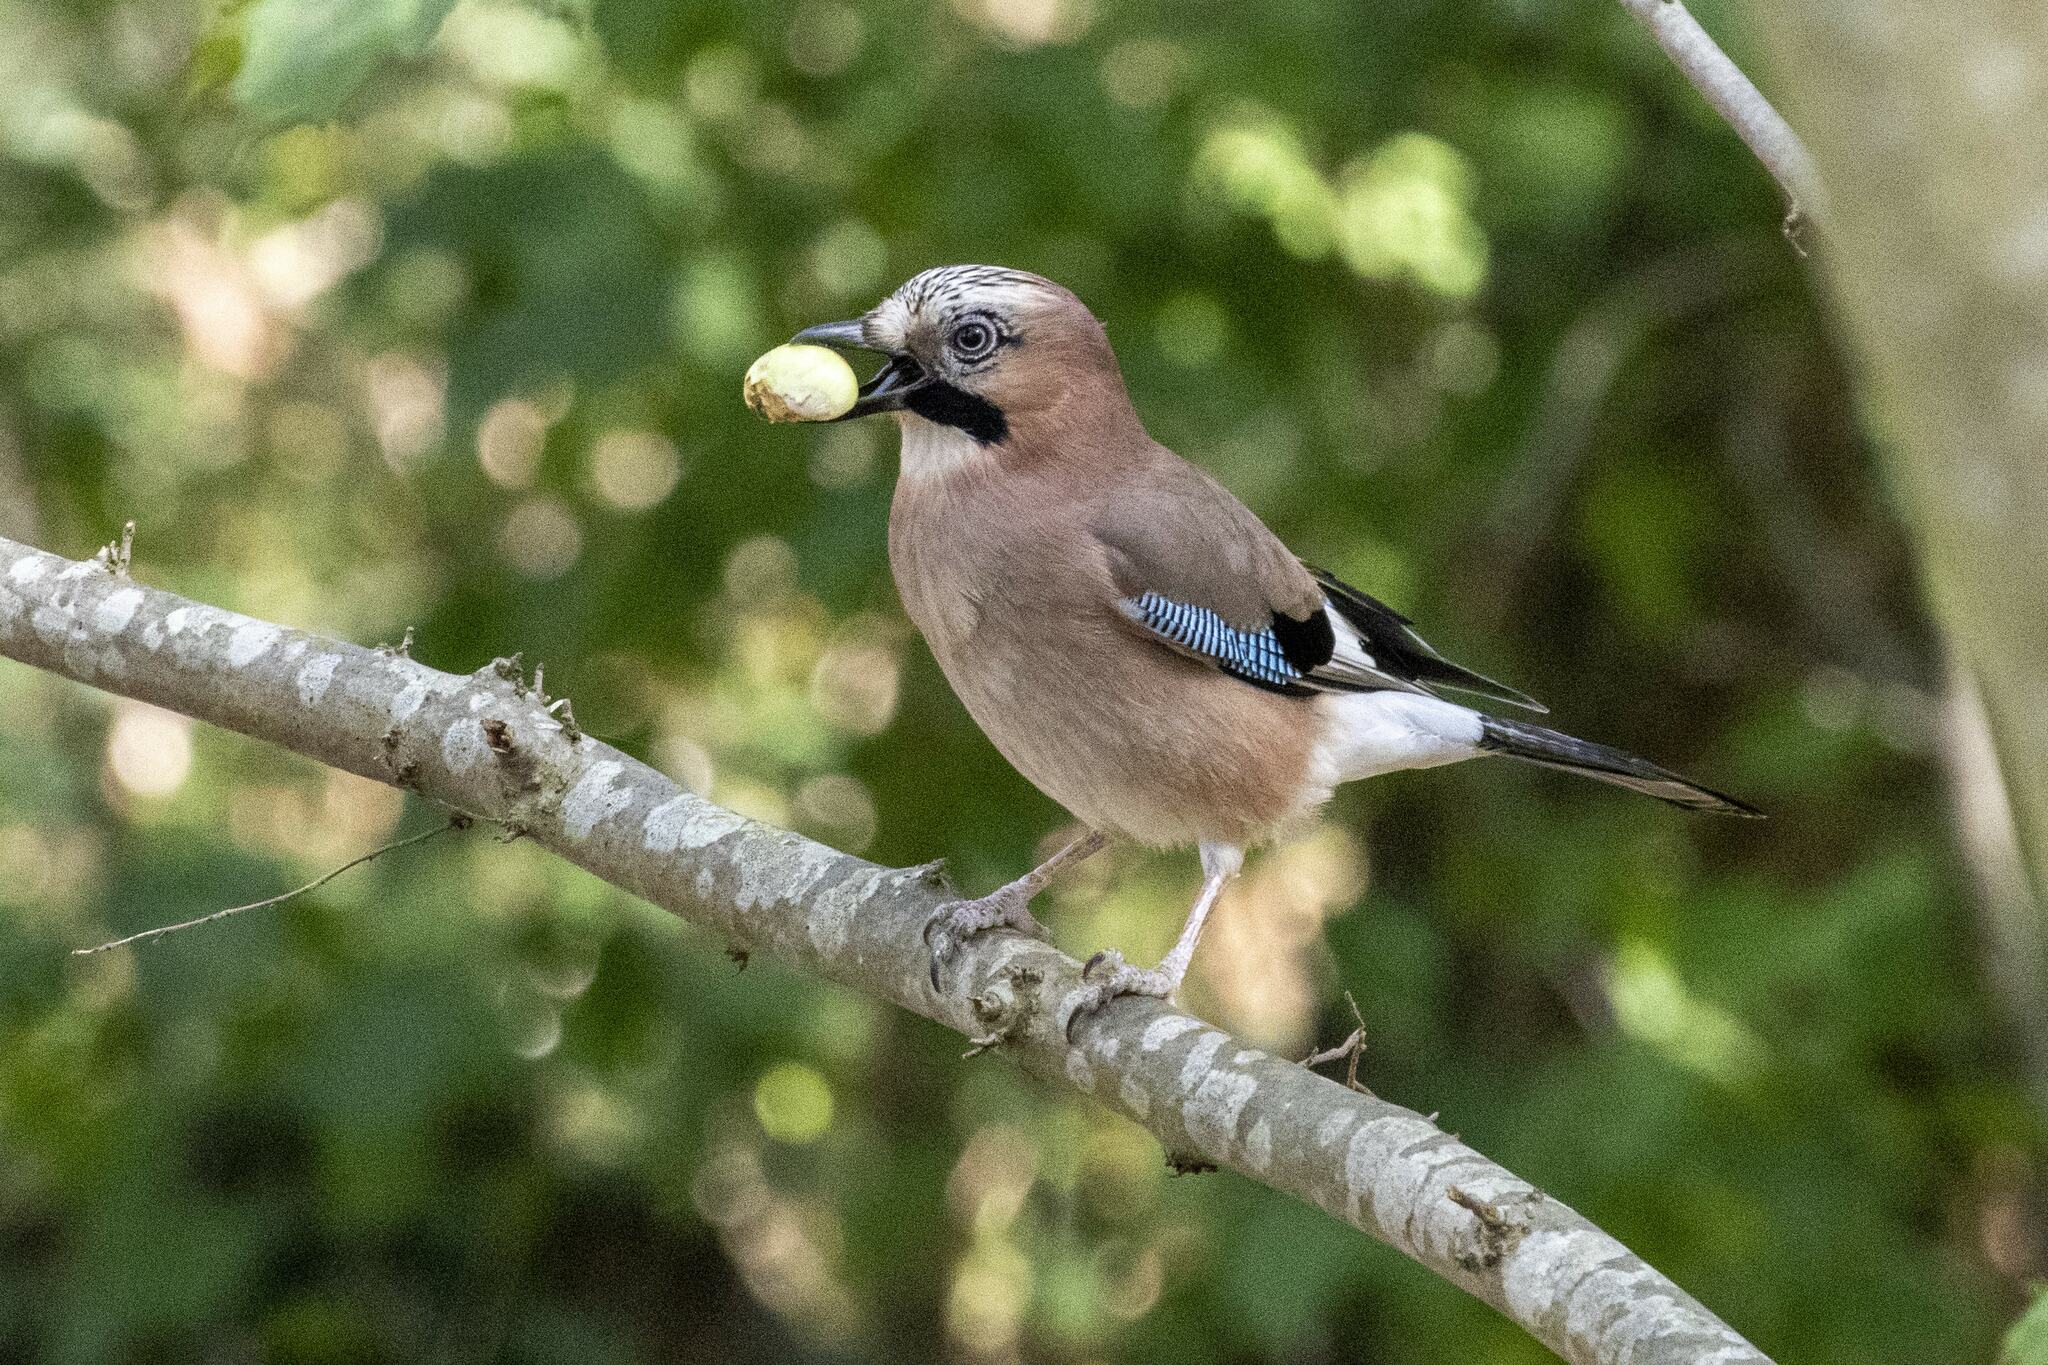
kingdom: Animalia
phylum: Chordata
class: Aves
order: Passeriformes
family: Corvidae
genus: Garrulus
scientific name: Garrulus glandarius
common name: Eurasian jay
